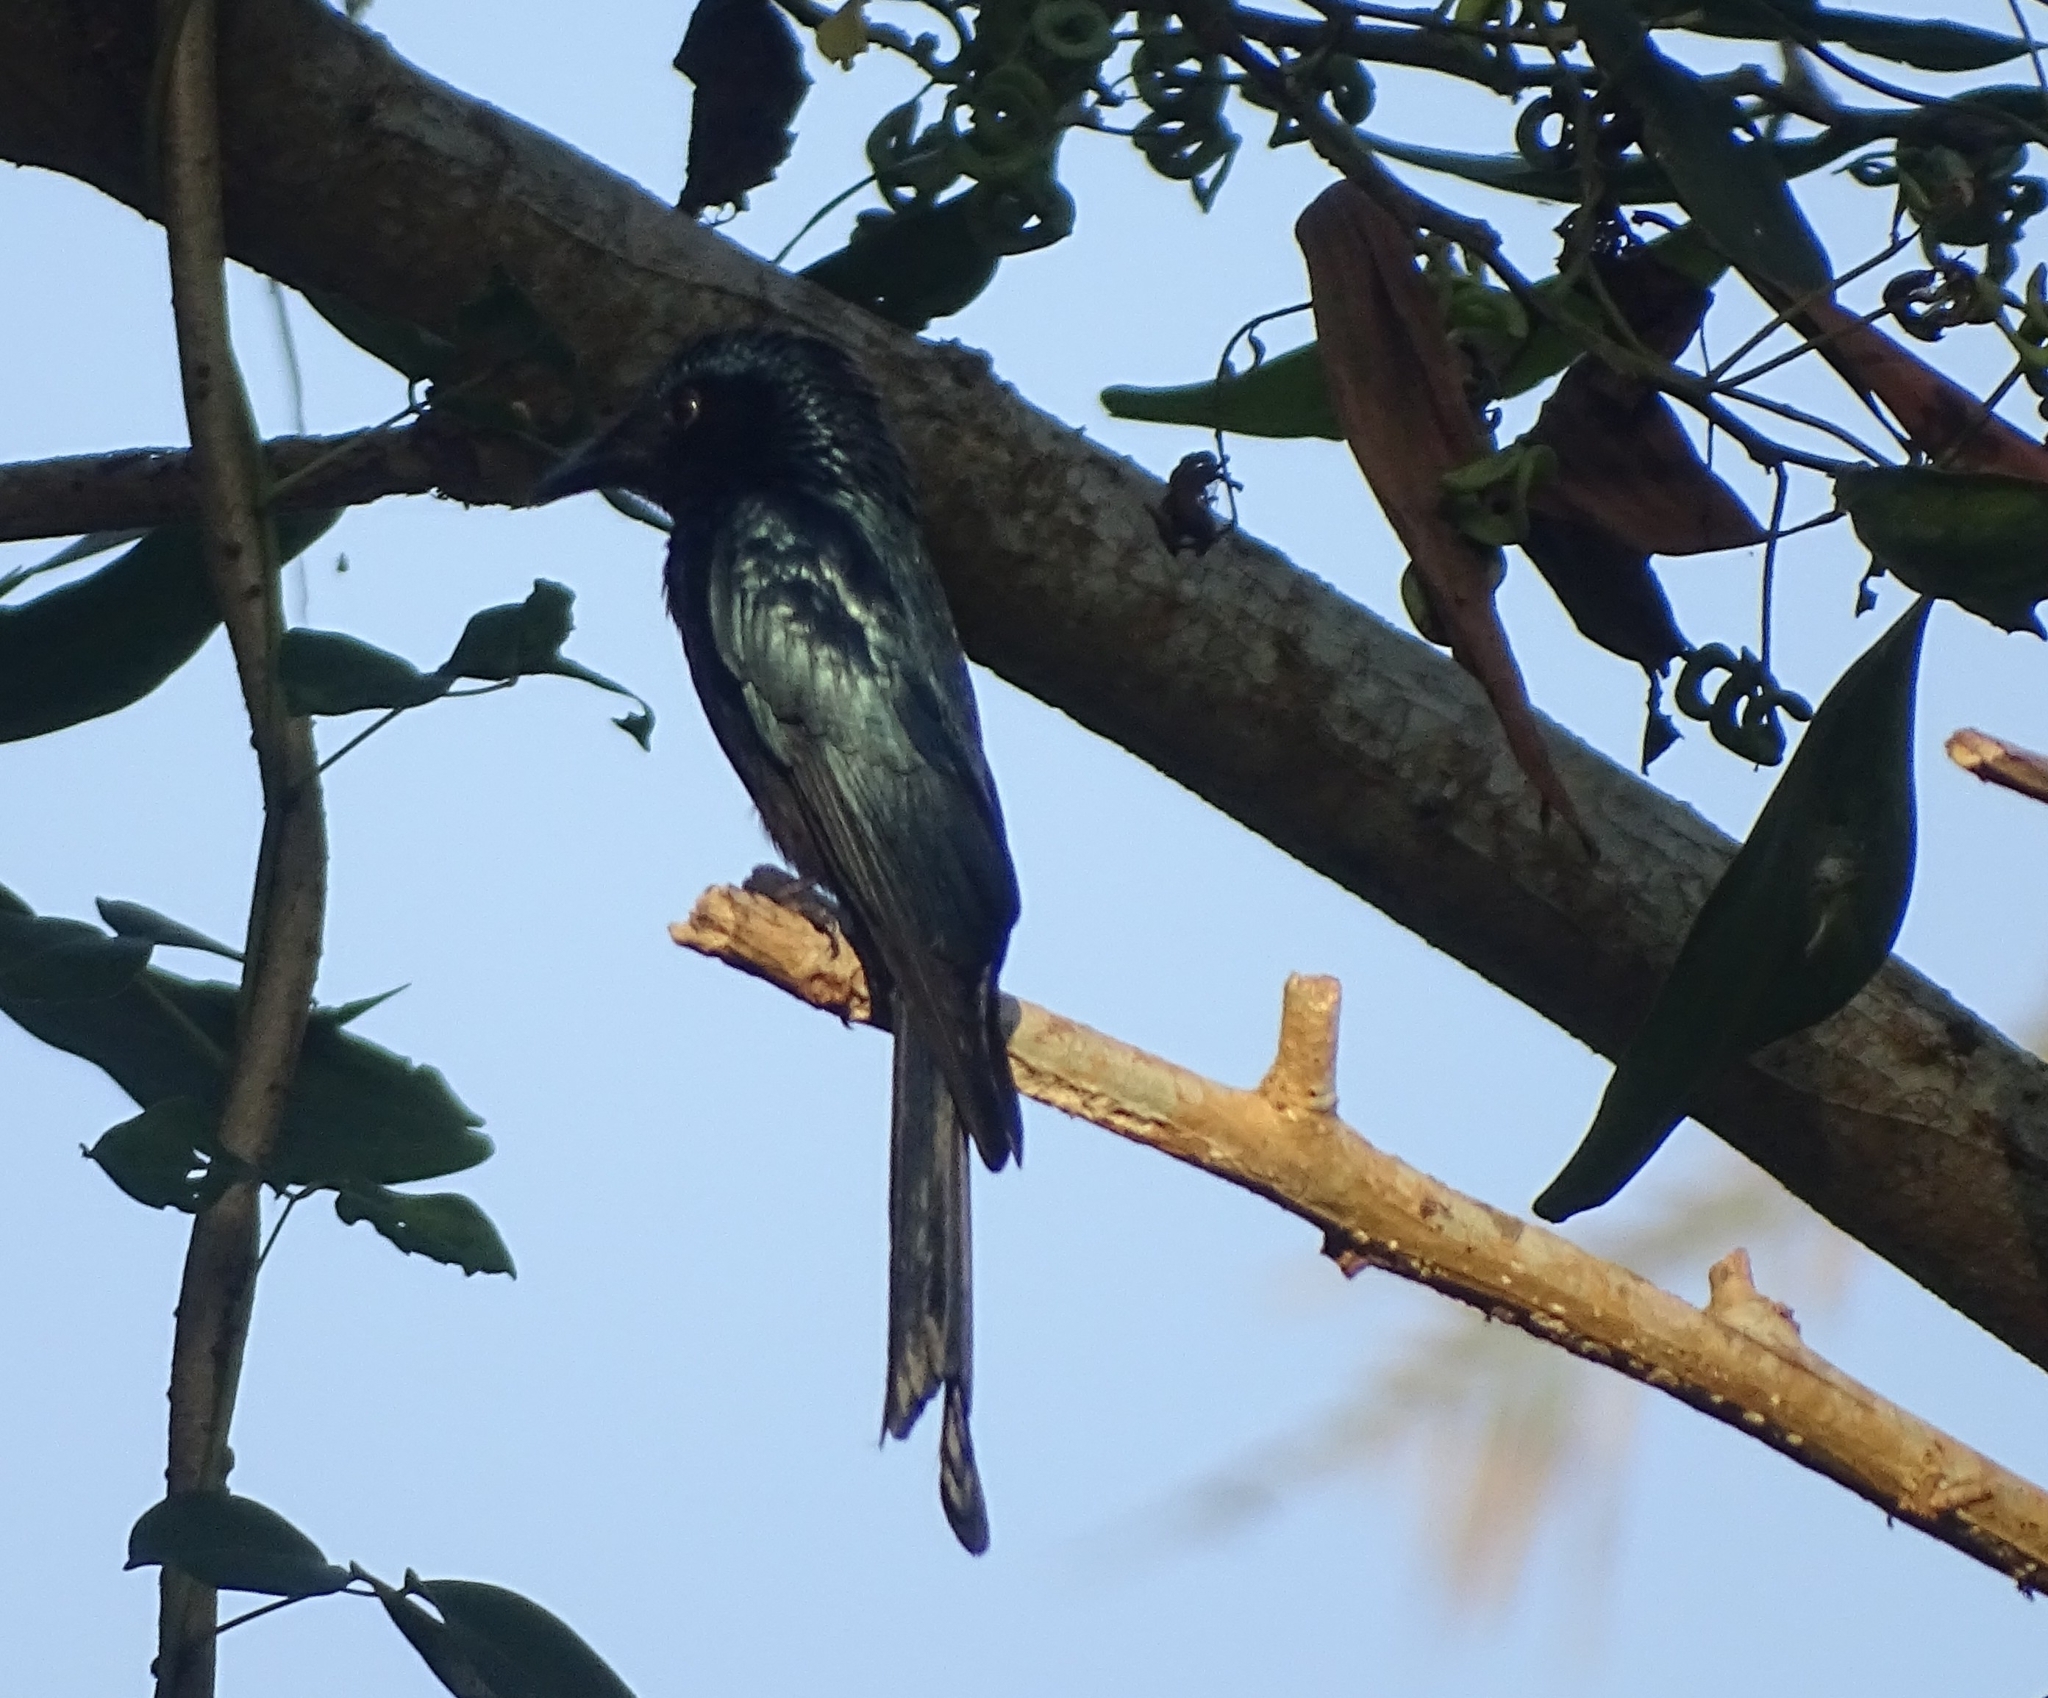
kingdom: Animalia
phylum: Chordata
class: Aves
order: Passeriformes
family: Dicruridae
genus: Dicrurus
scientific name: Dicrurus aeneus
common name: Bronzed drongo
